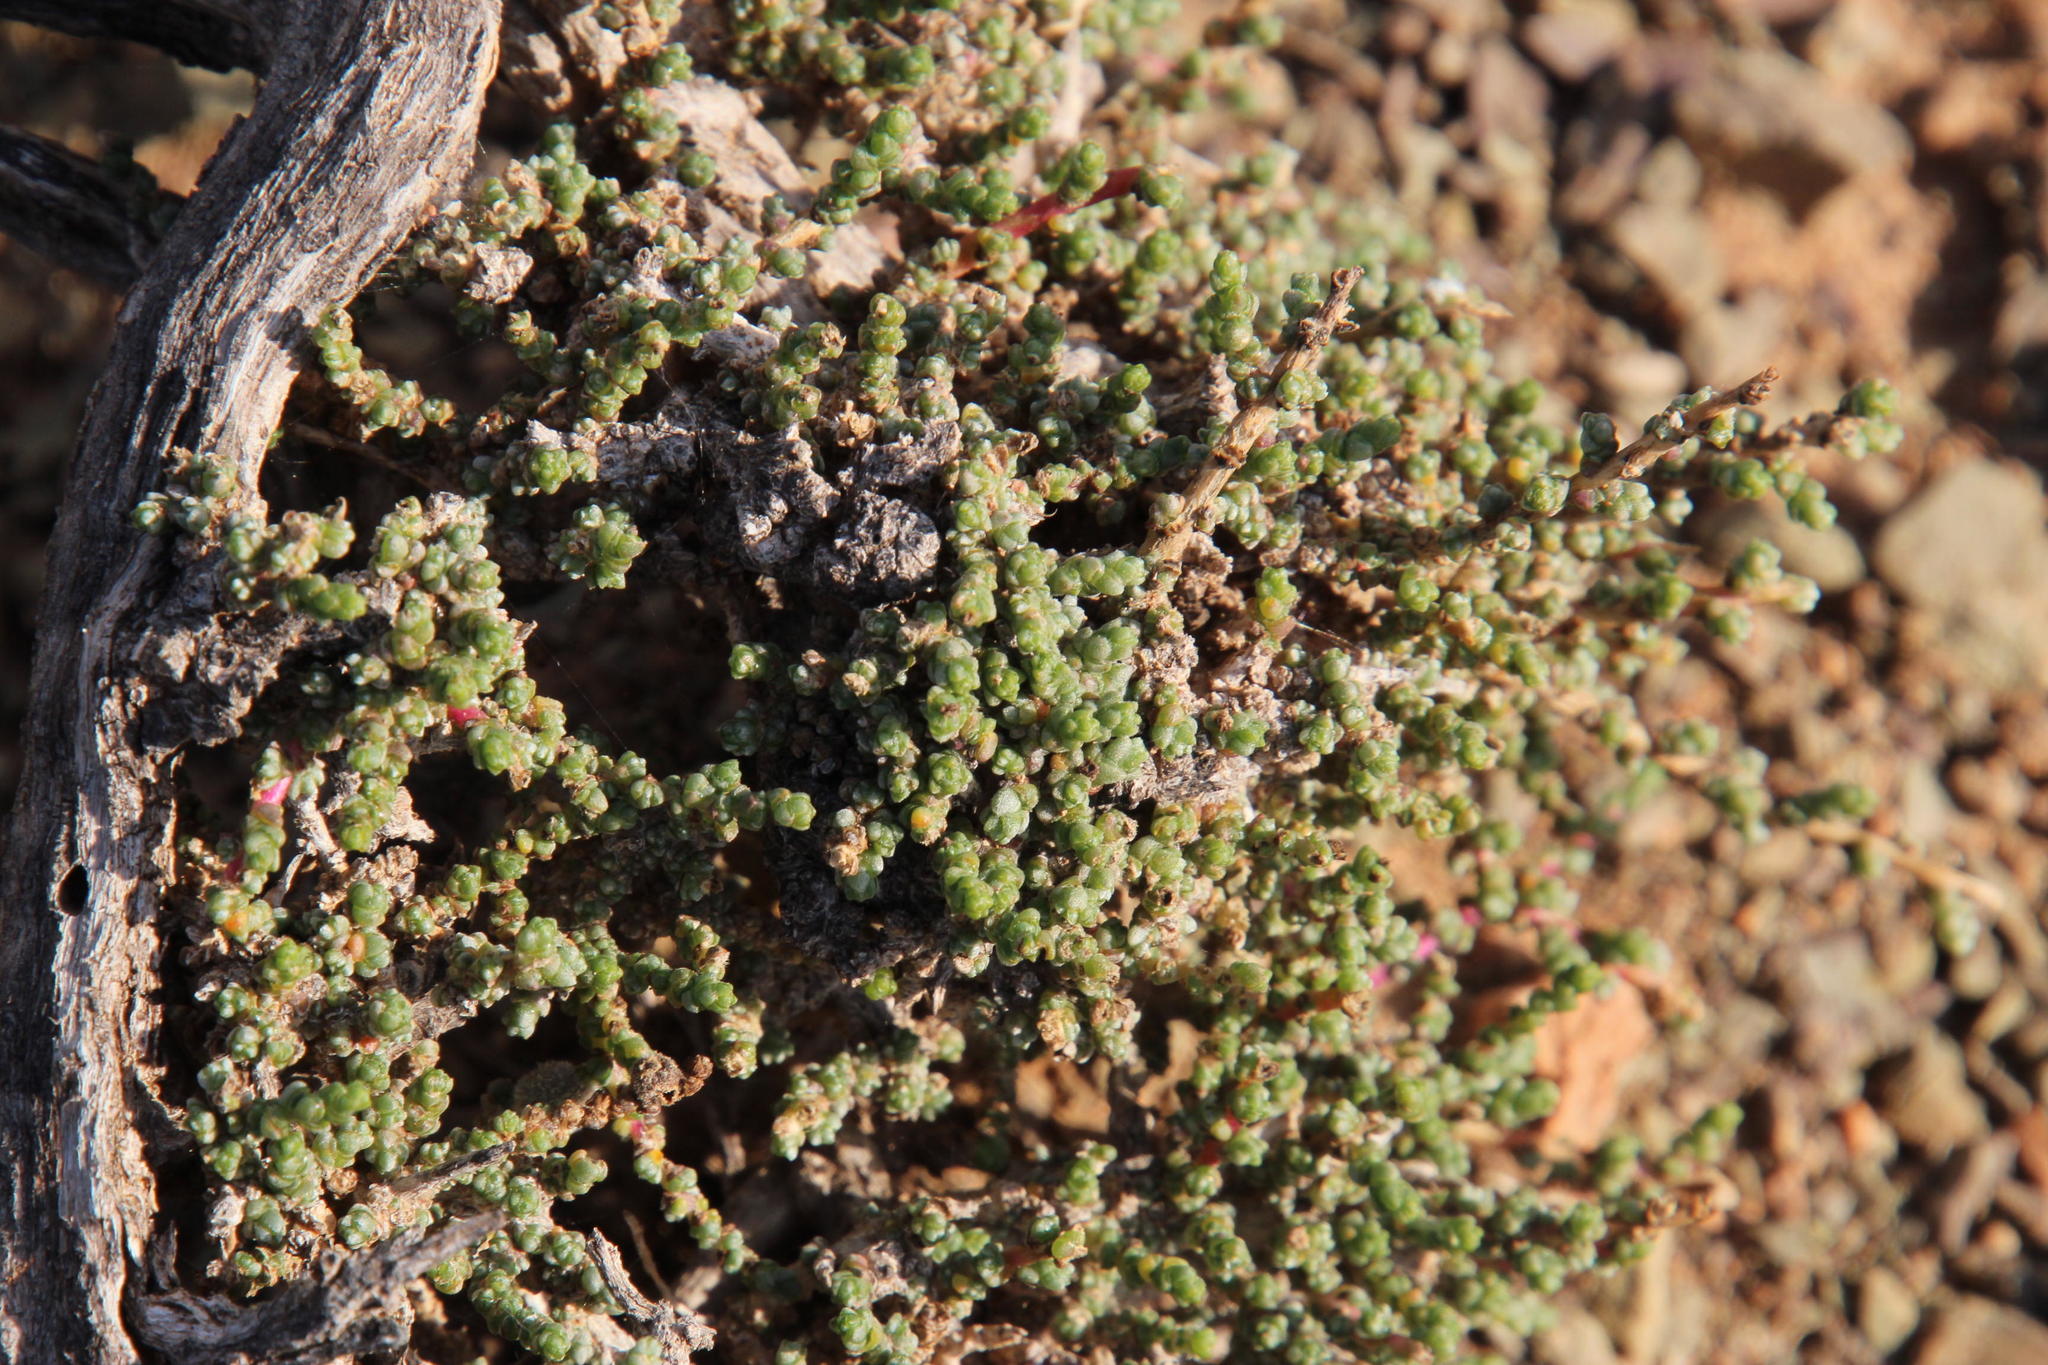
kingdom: Plantae
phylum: Tracheophyta
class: Magnoliopsida
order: Caryophyllales
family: Amaranthaceae
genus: Caroxylon
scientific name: Caroxylon aphyllum
